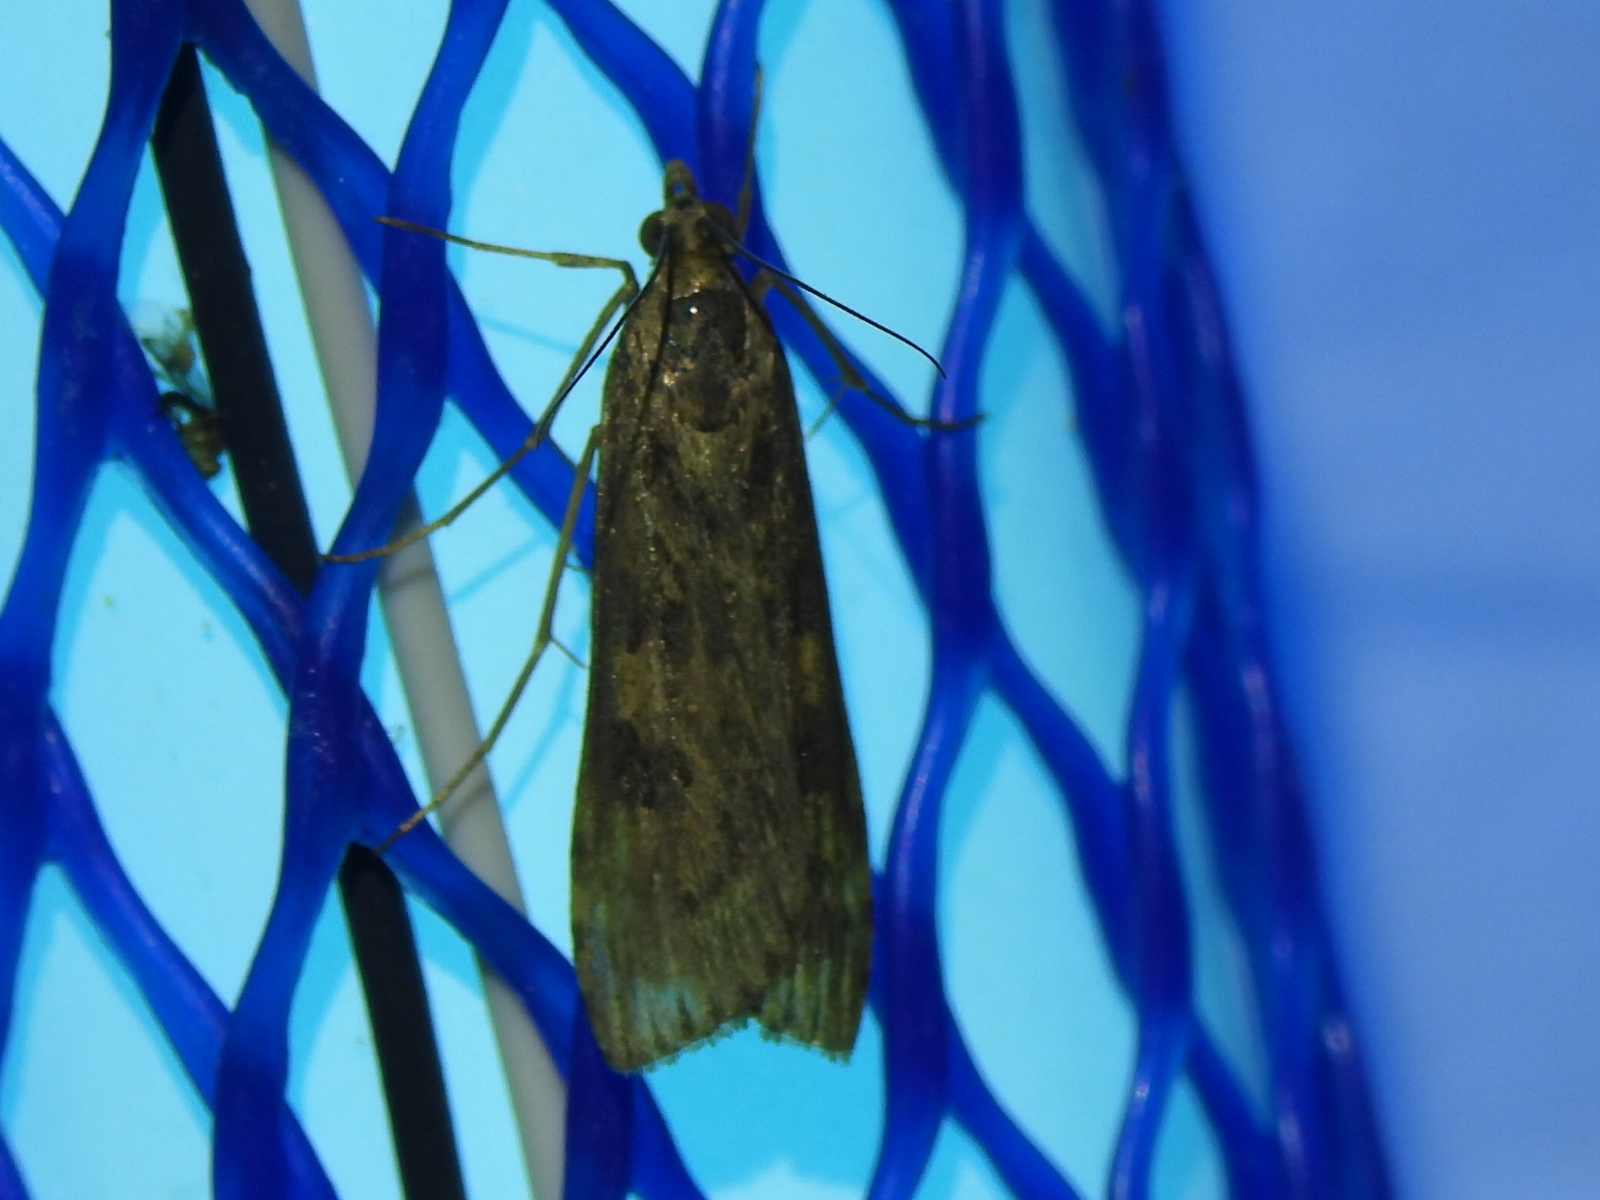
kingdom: Animalia
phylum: Arthropoda
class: Insecta
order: Lepidoptera
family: Crambidae
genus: Nomophila
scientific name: Nomophila nearctica
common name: American rush veneer
